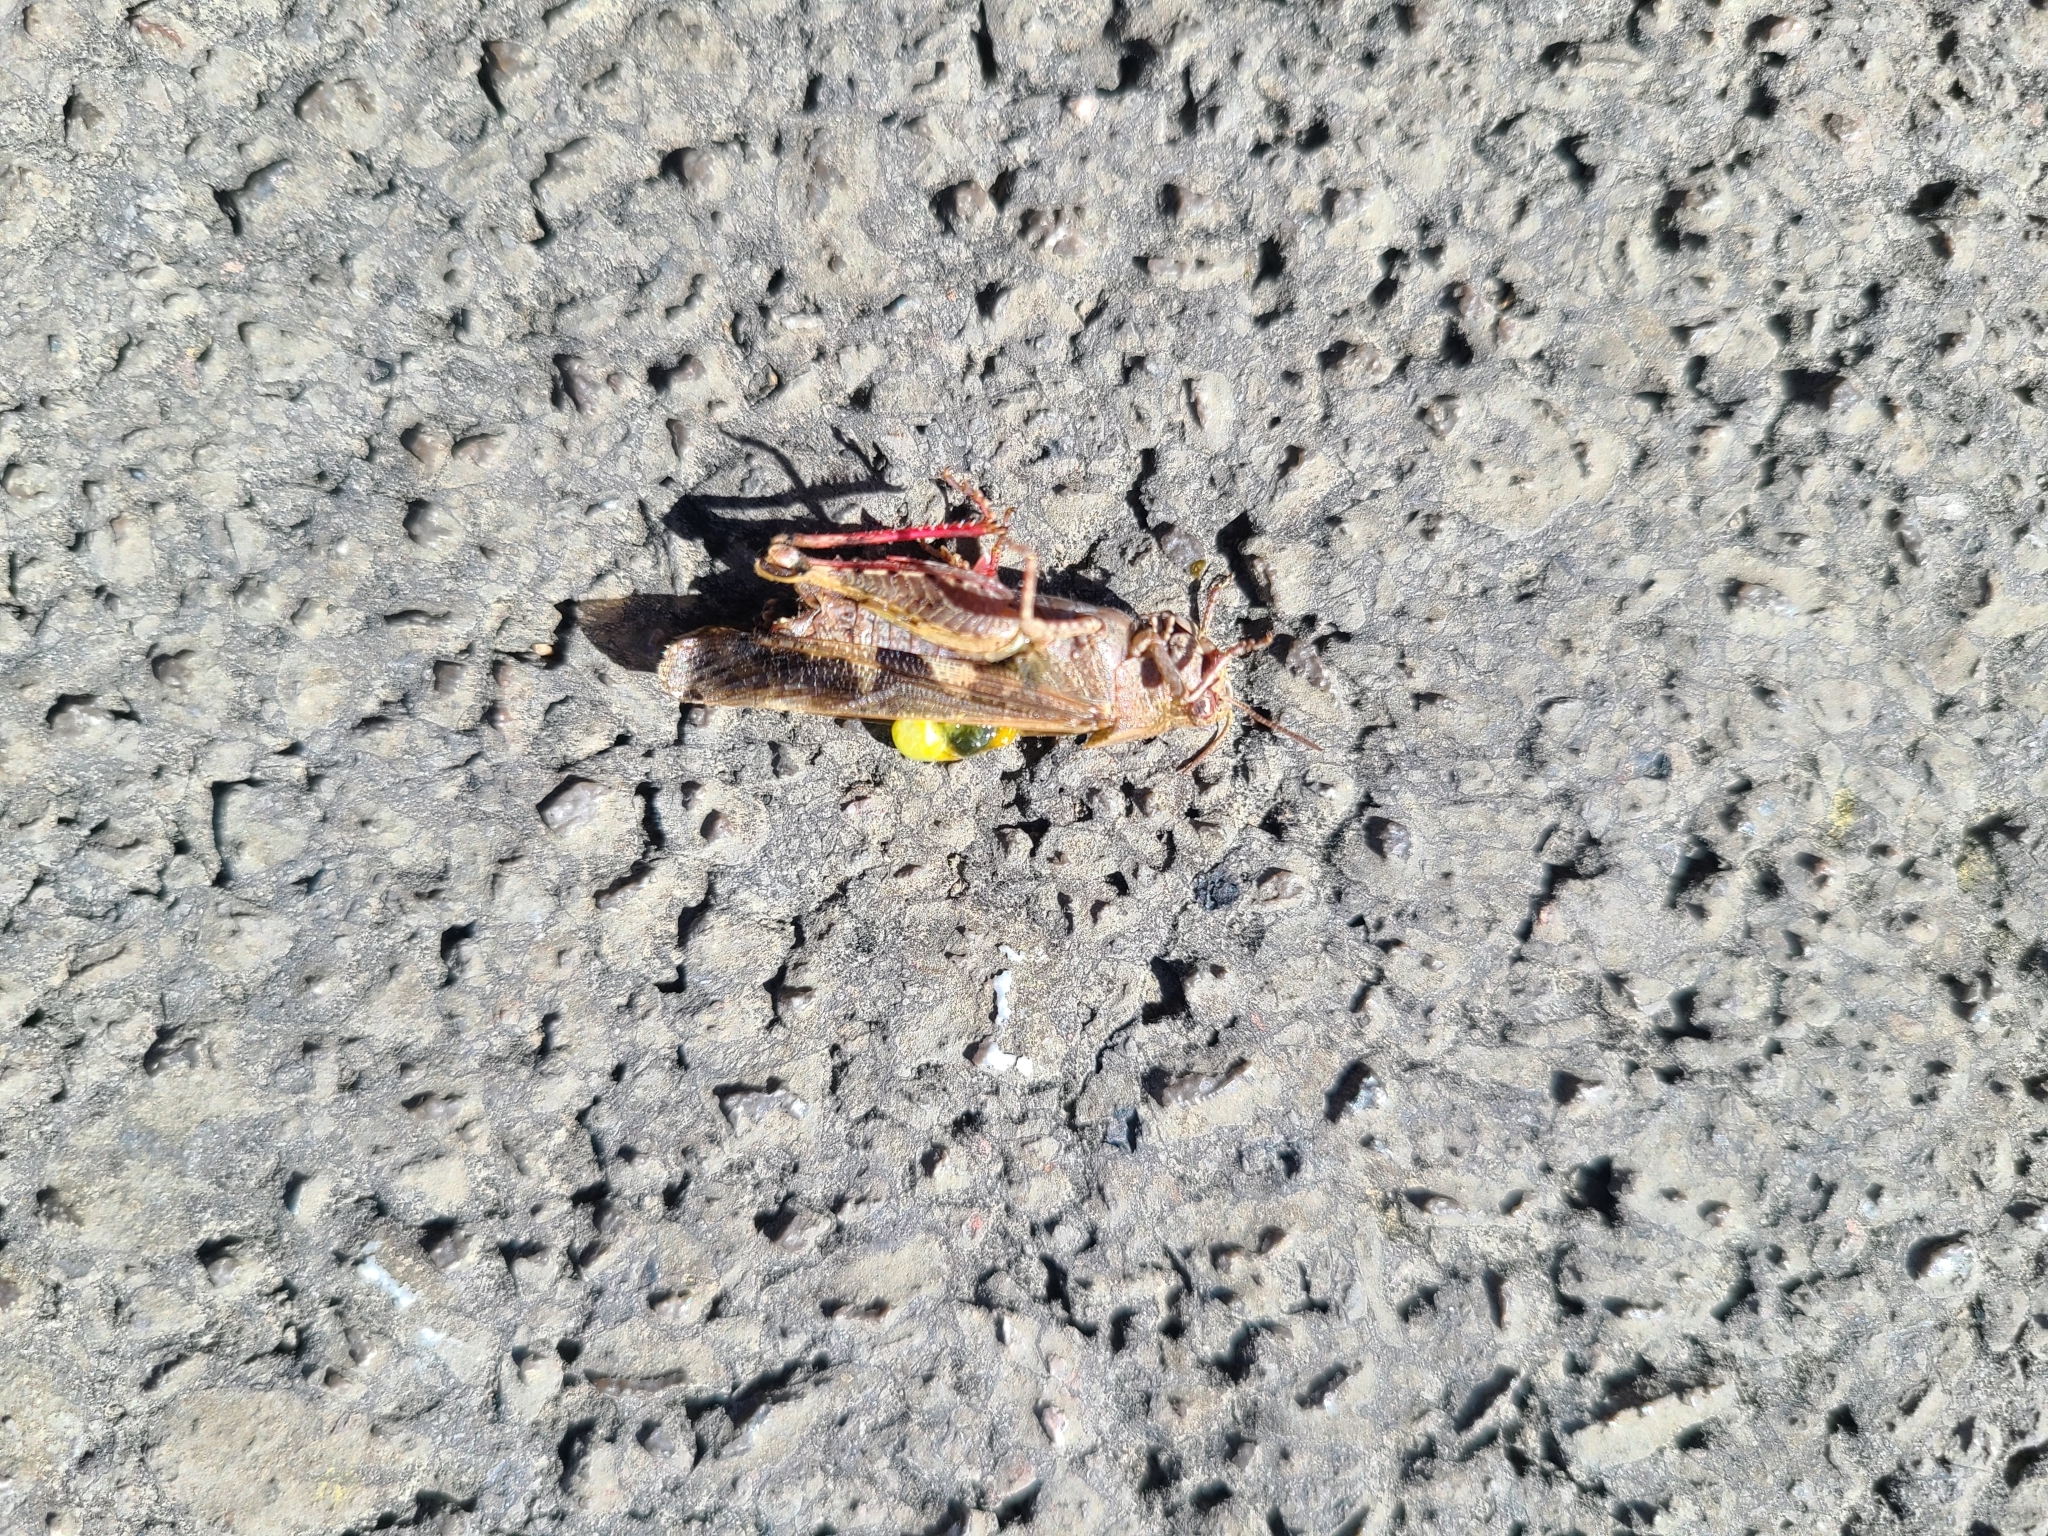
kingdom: Animalia
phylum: Arthropoda
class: Insecta
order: Orthoptera
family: Acrididae
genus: Aiolopus
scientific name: Aiolopus strepens
